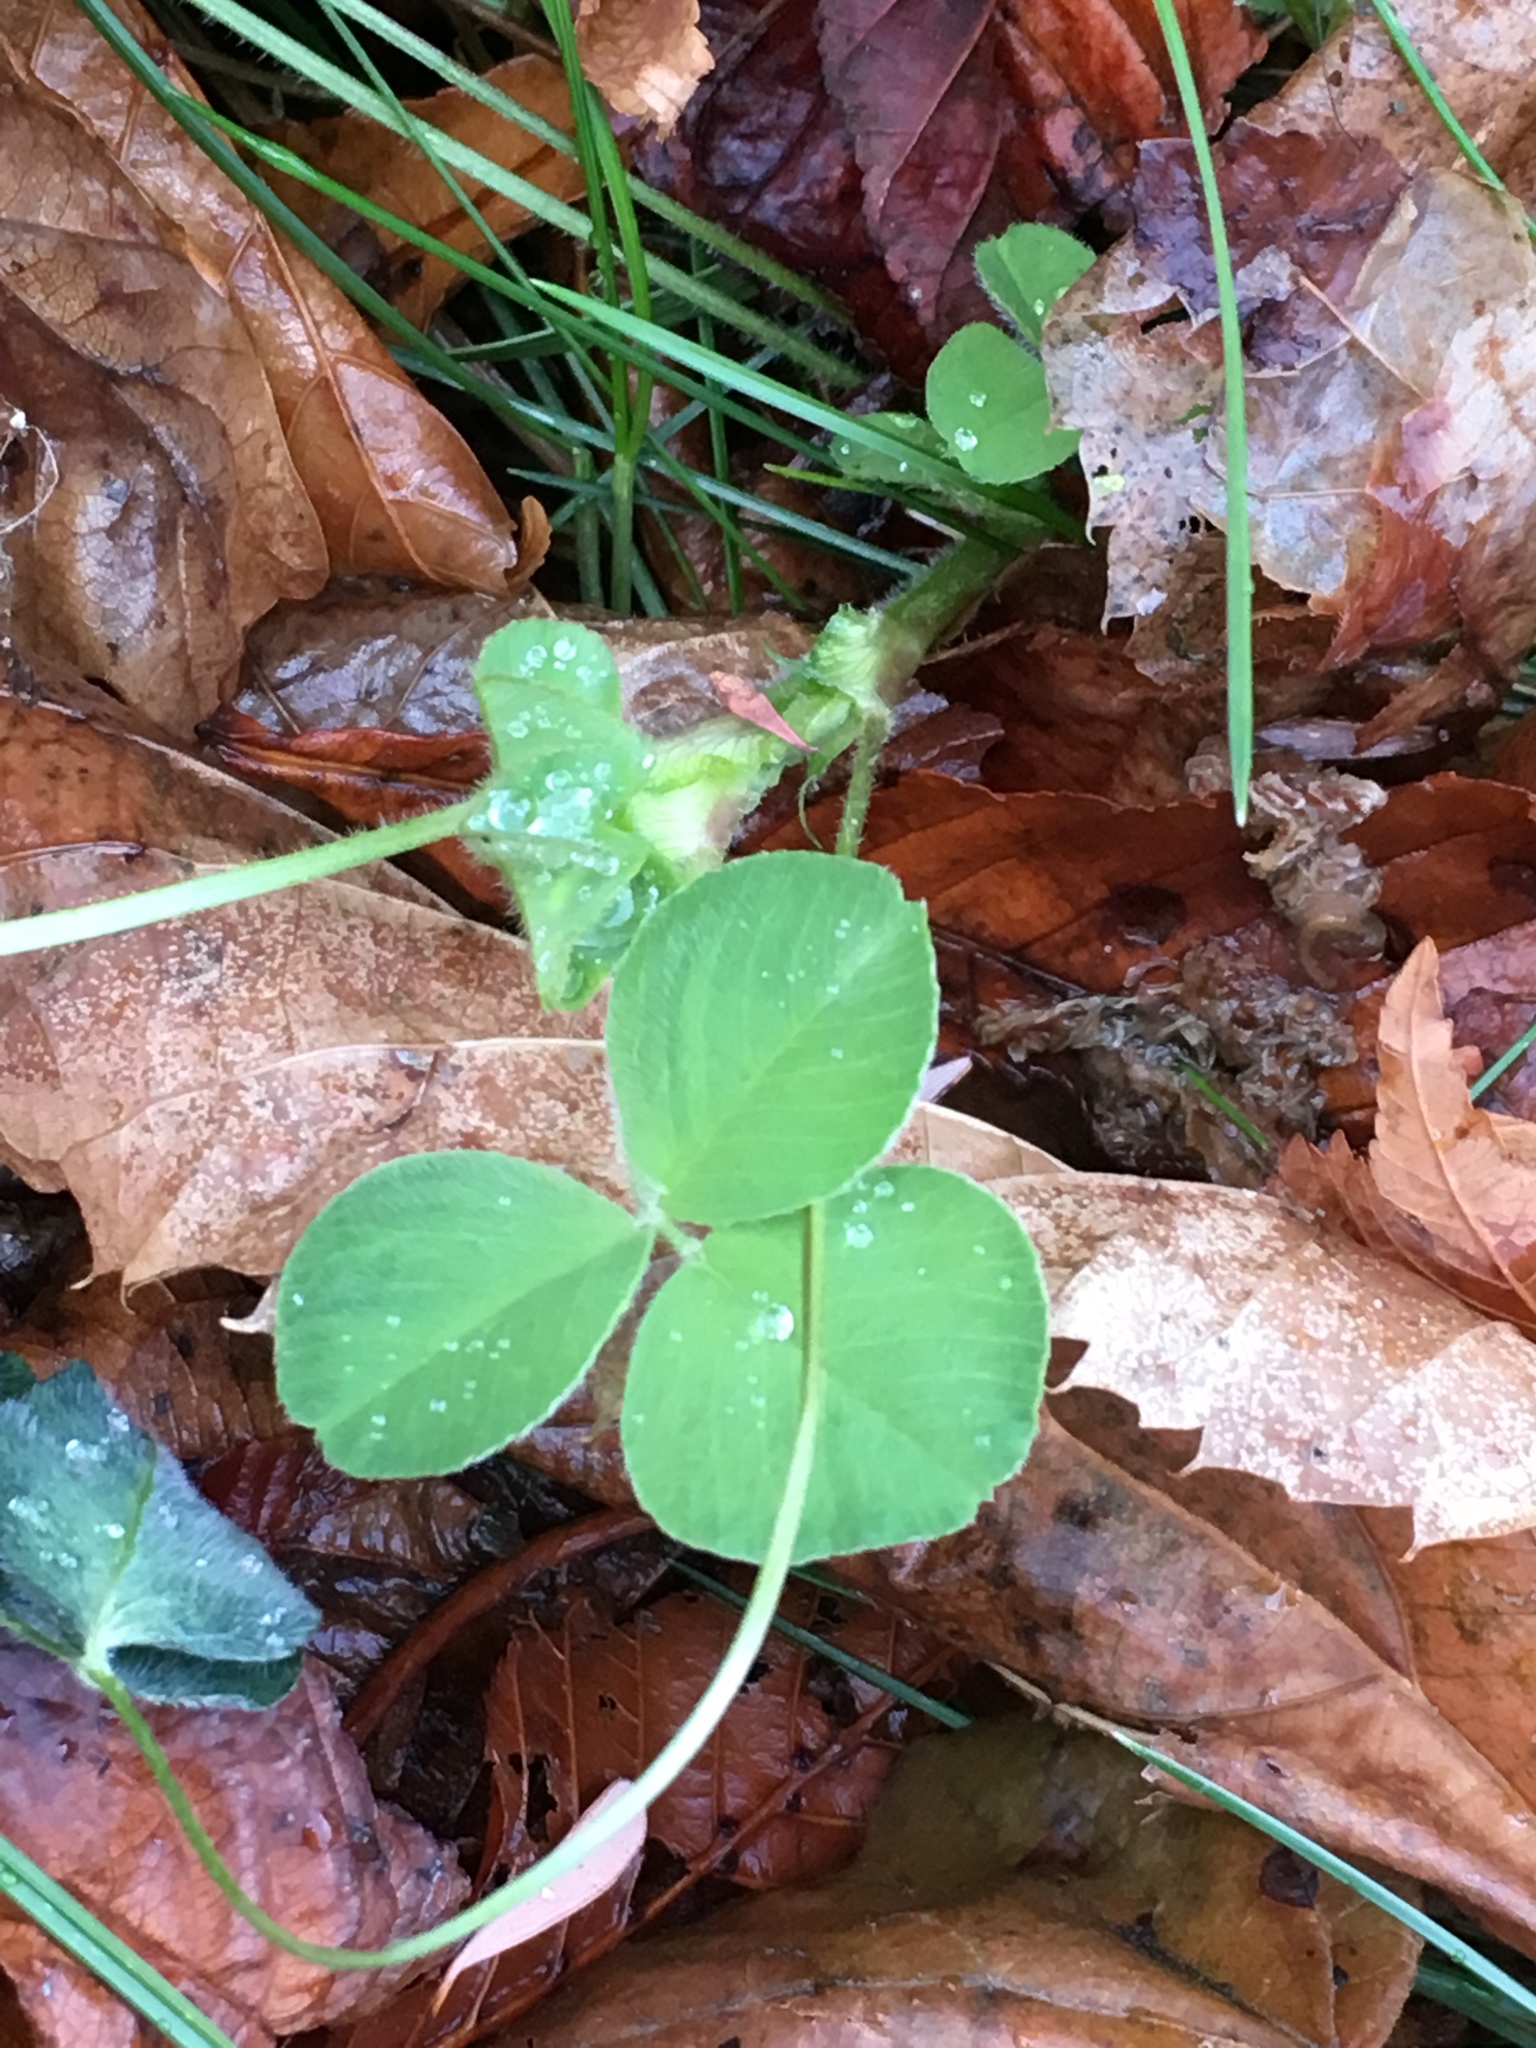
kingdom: Plantae
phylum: Tracheophyta
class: Magnoliopsida
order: Fabales
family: Fabaceae
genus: Trifolium
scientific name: Trifolium pratense
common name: Red clover
